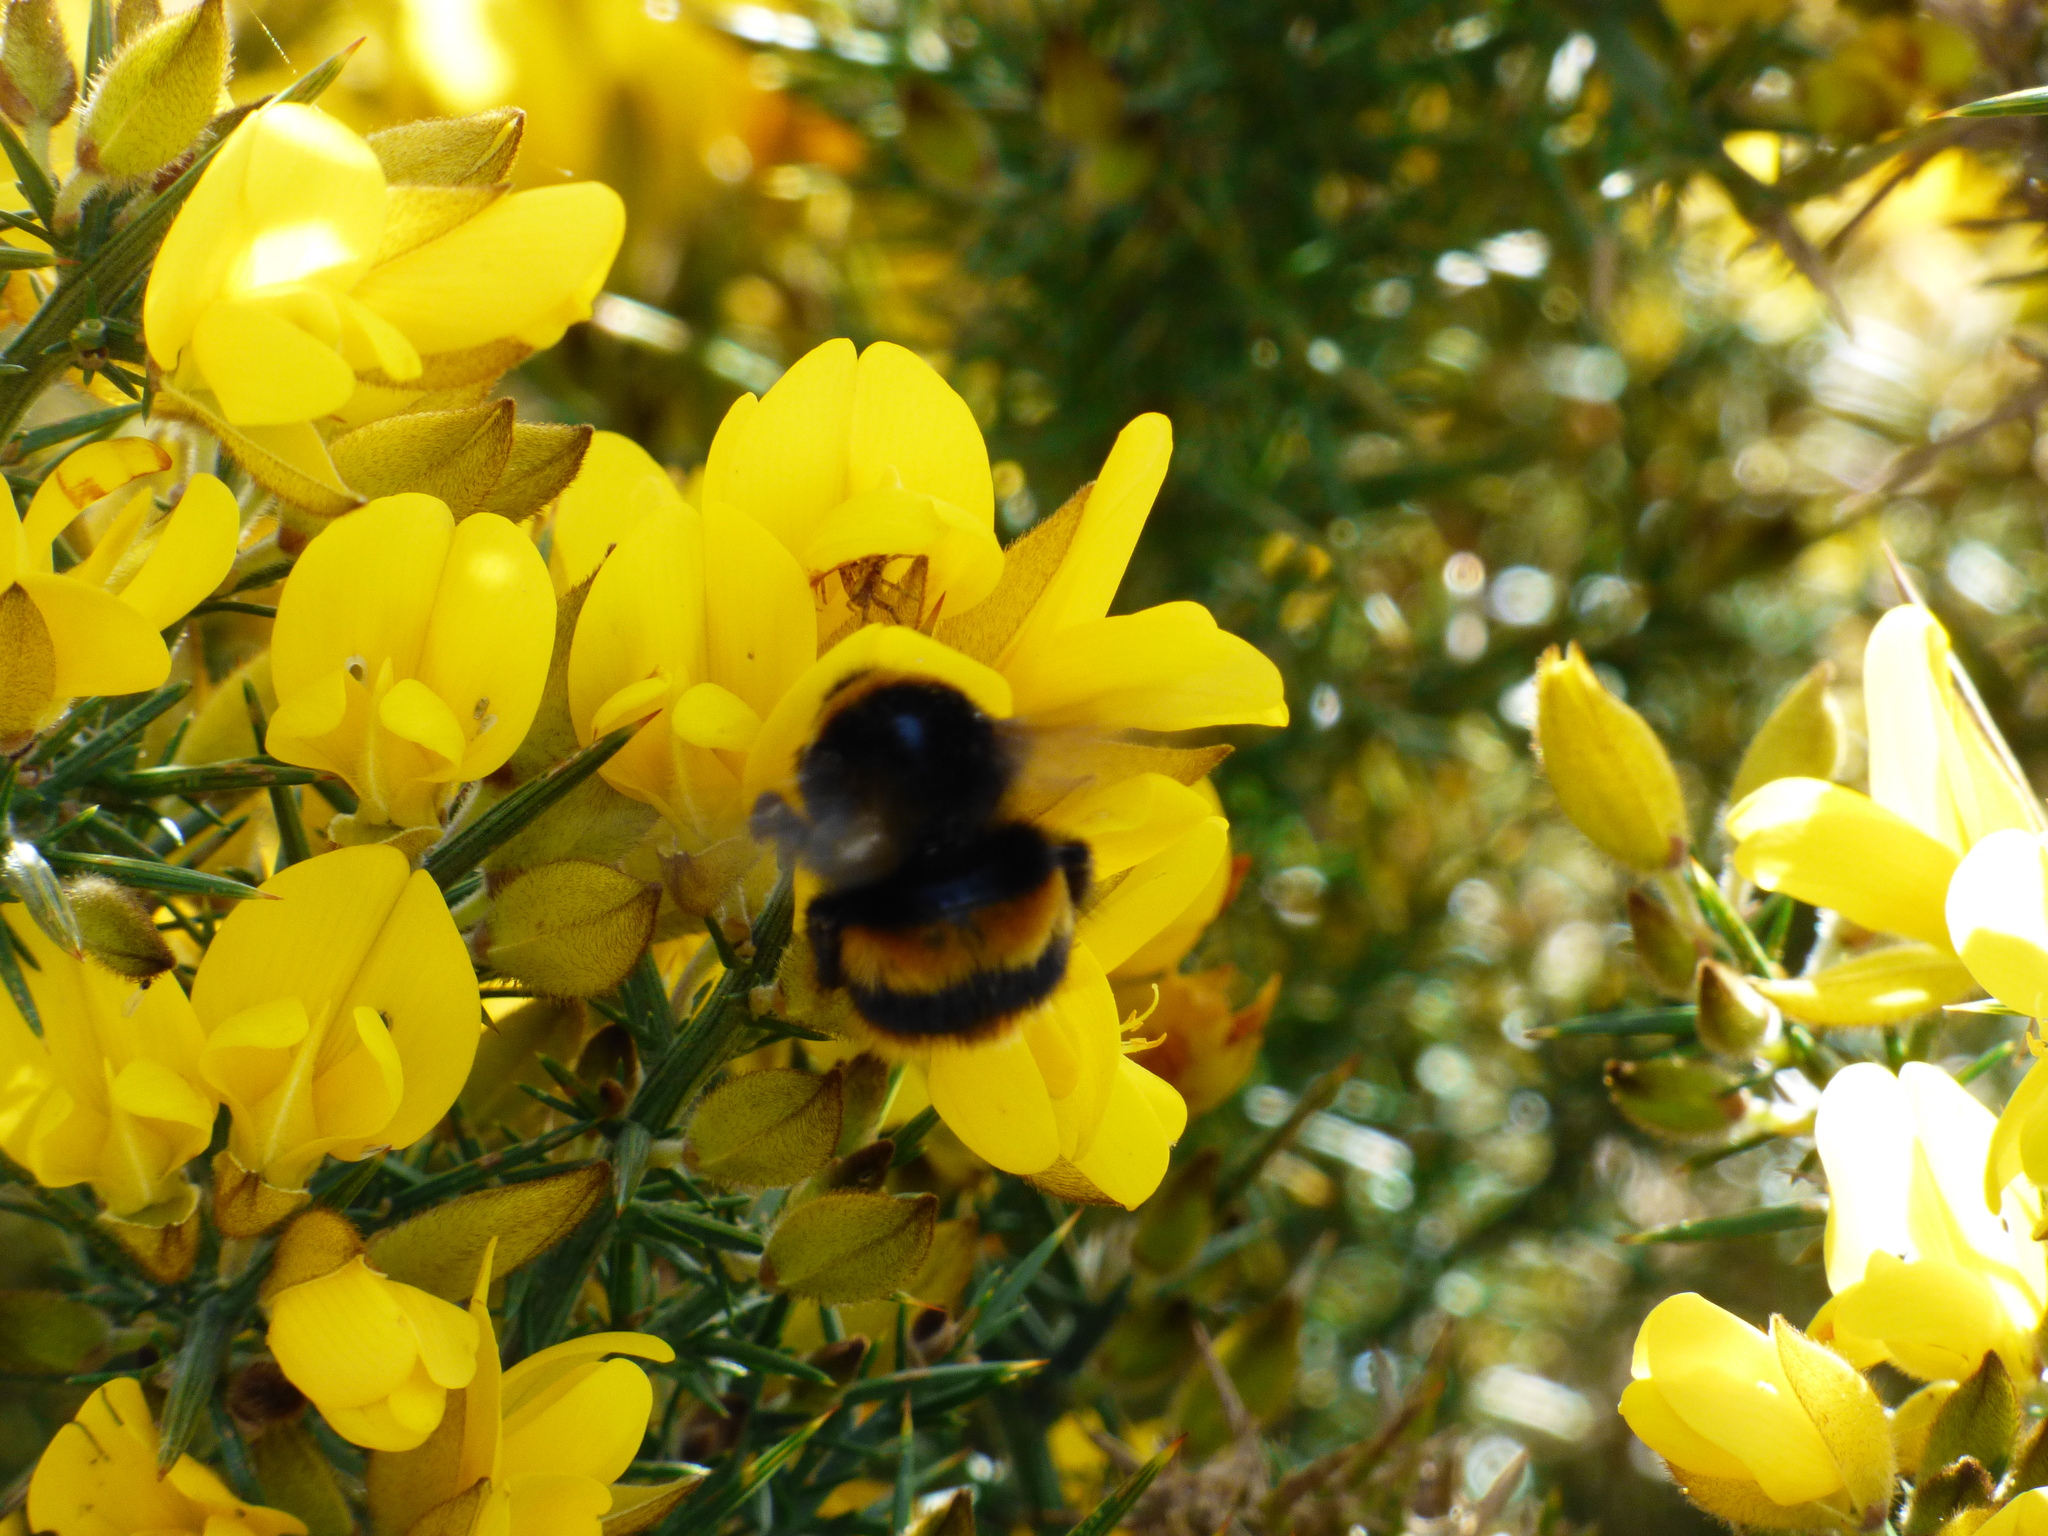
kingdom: Animalia
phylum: Arthropoda
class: Insecta
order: Hymenoptera
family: Apidae
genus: Bombus
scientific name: Bombus terrestris
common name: Buff-tailed bumblebee
